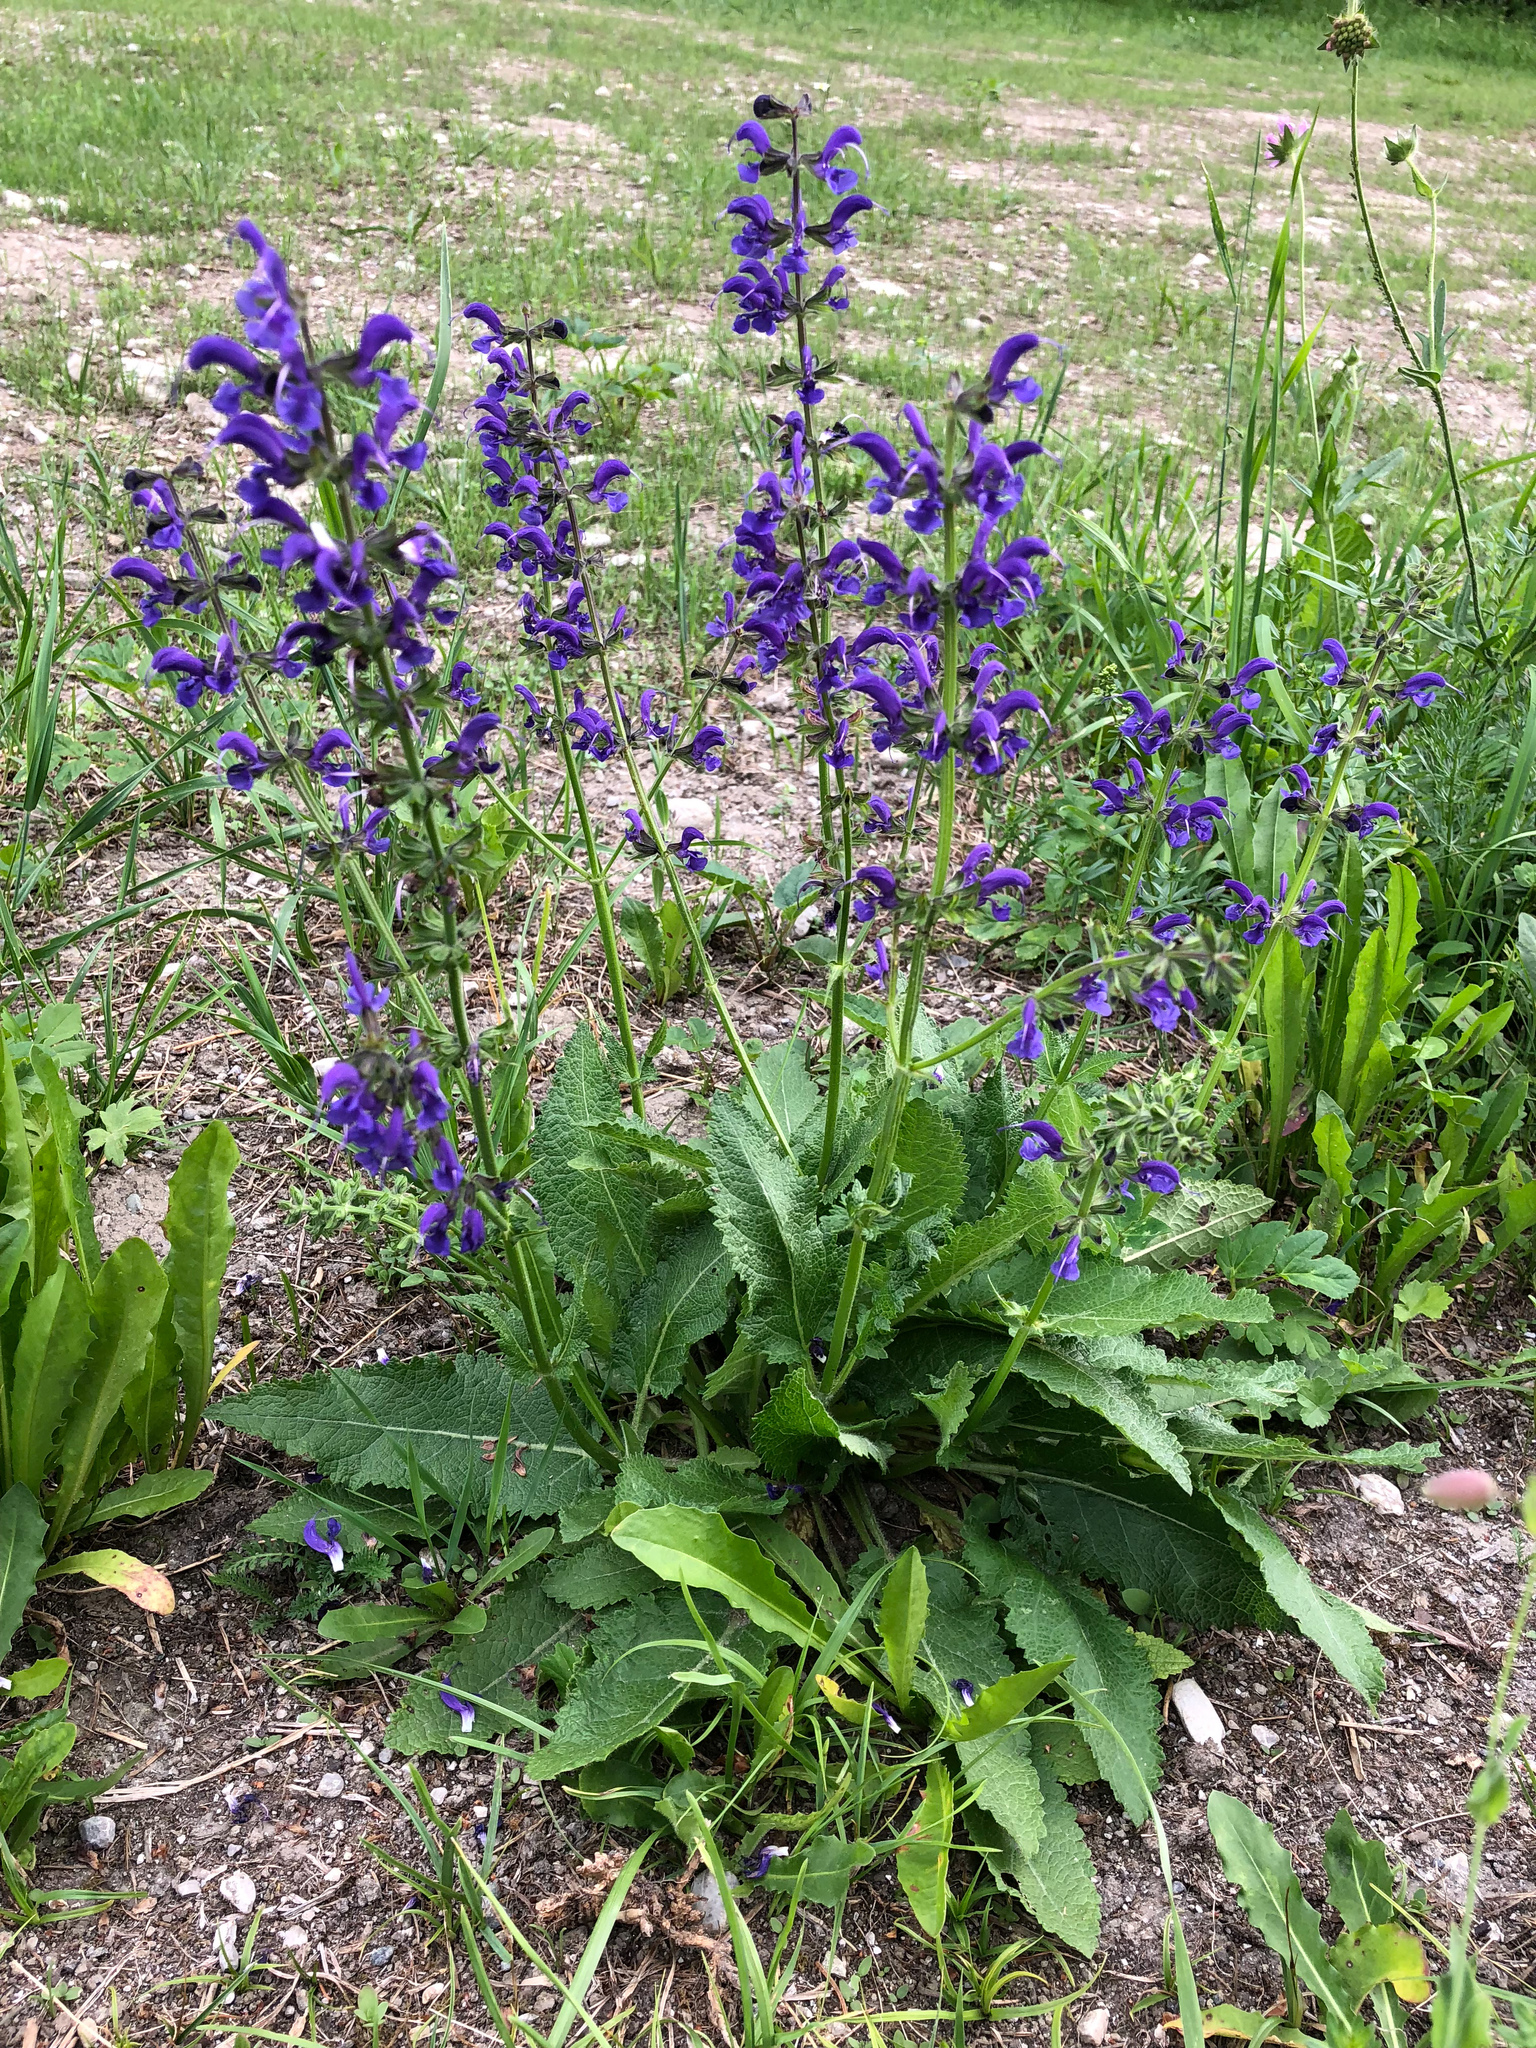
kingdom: Plantae
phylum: Tracheophyta
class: Magnoliopsida
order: Lamiales
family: Lamiaceae
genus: Salvia
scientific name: Salvia pratensis
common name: Meadow sage
